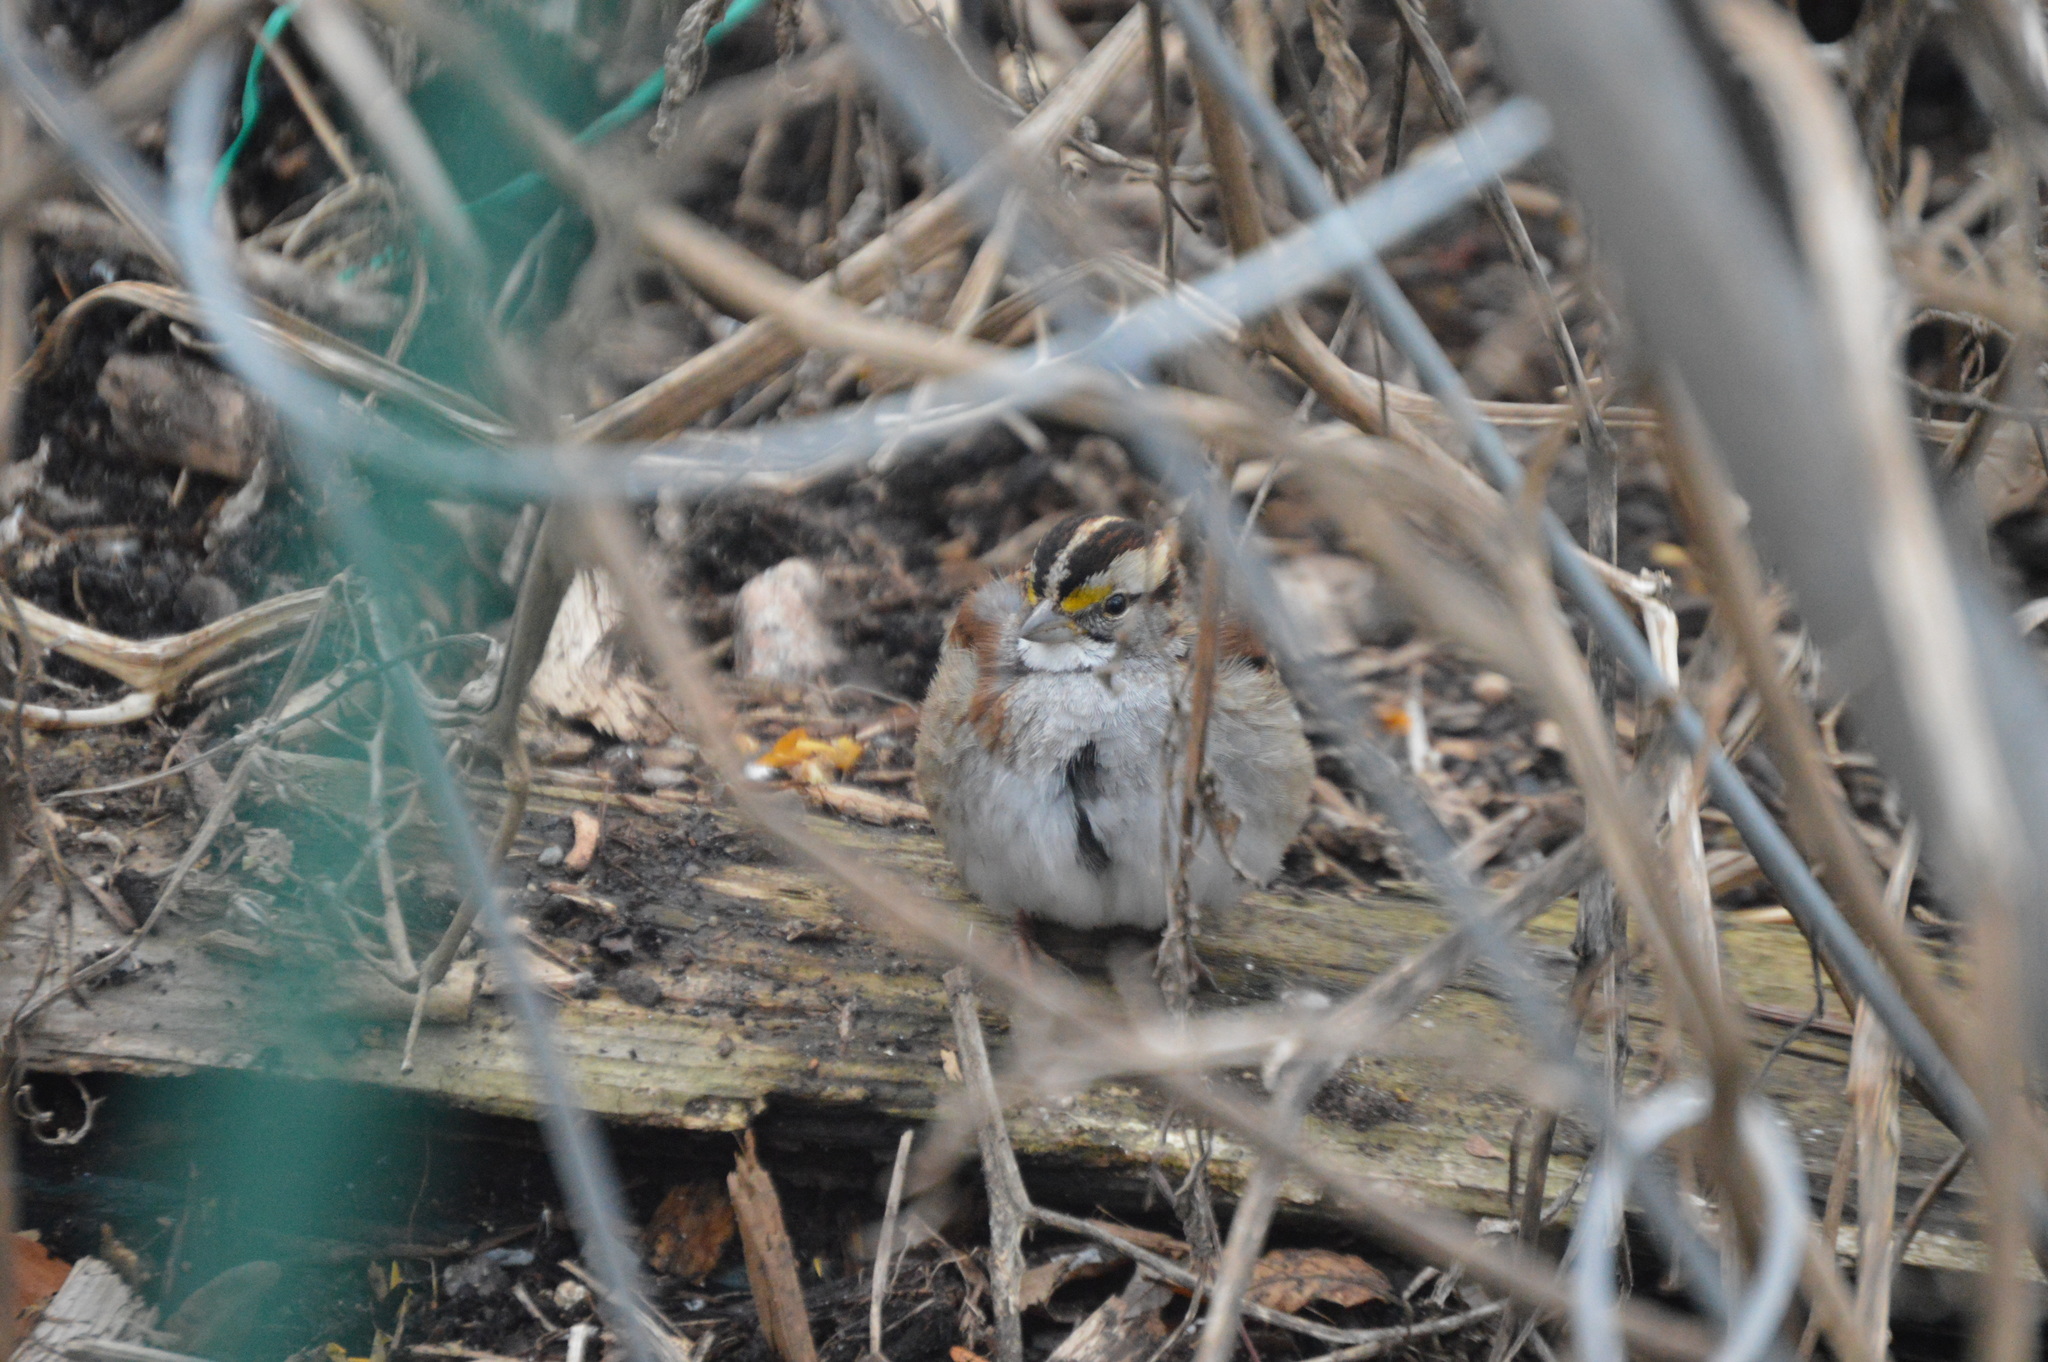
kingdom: Animalia
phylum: Chordata
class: Aves
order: Passeriformes
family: Passerellidae
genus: Zonotrichia
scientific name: Zonotrichia albicollis
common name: White-throated sparrow
